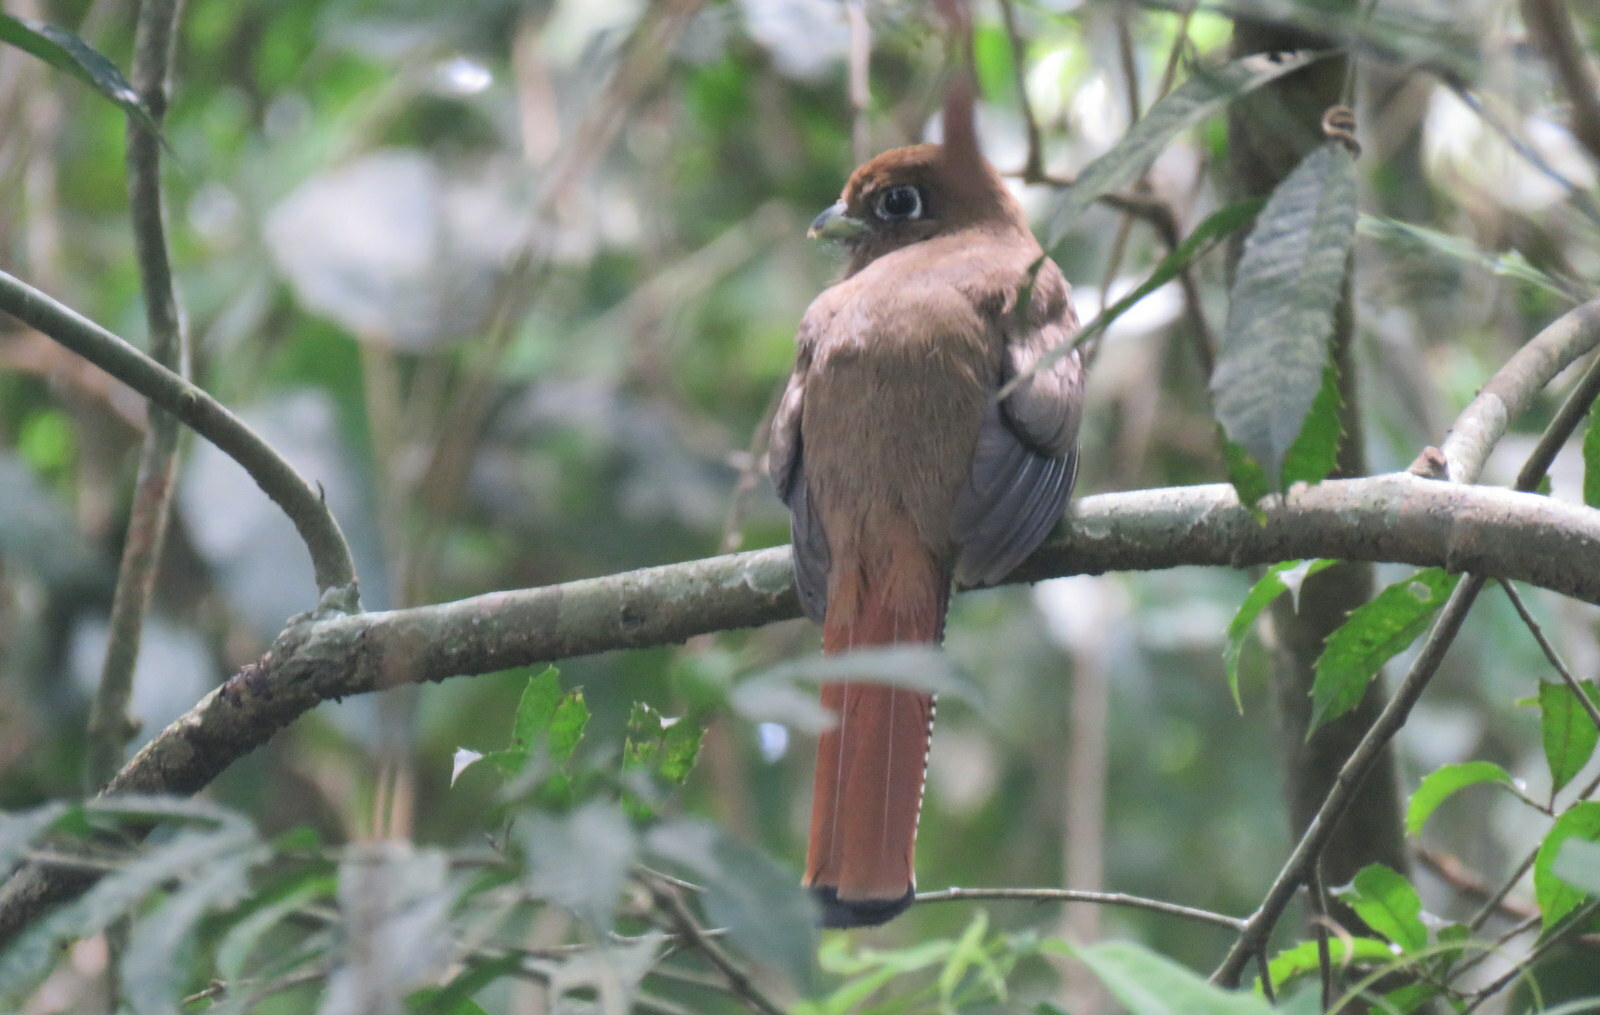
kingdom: Animalia
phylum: Chordata
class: Aves
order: Trogoniformes
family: Trogonidae
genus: Trogon
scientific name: Trogon rufus
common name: Black-throated trogon
